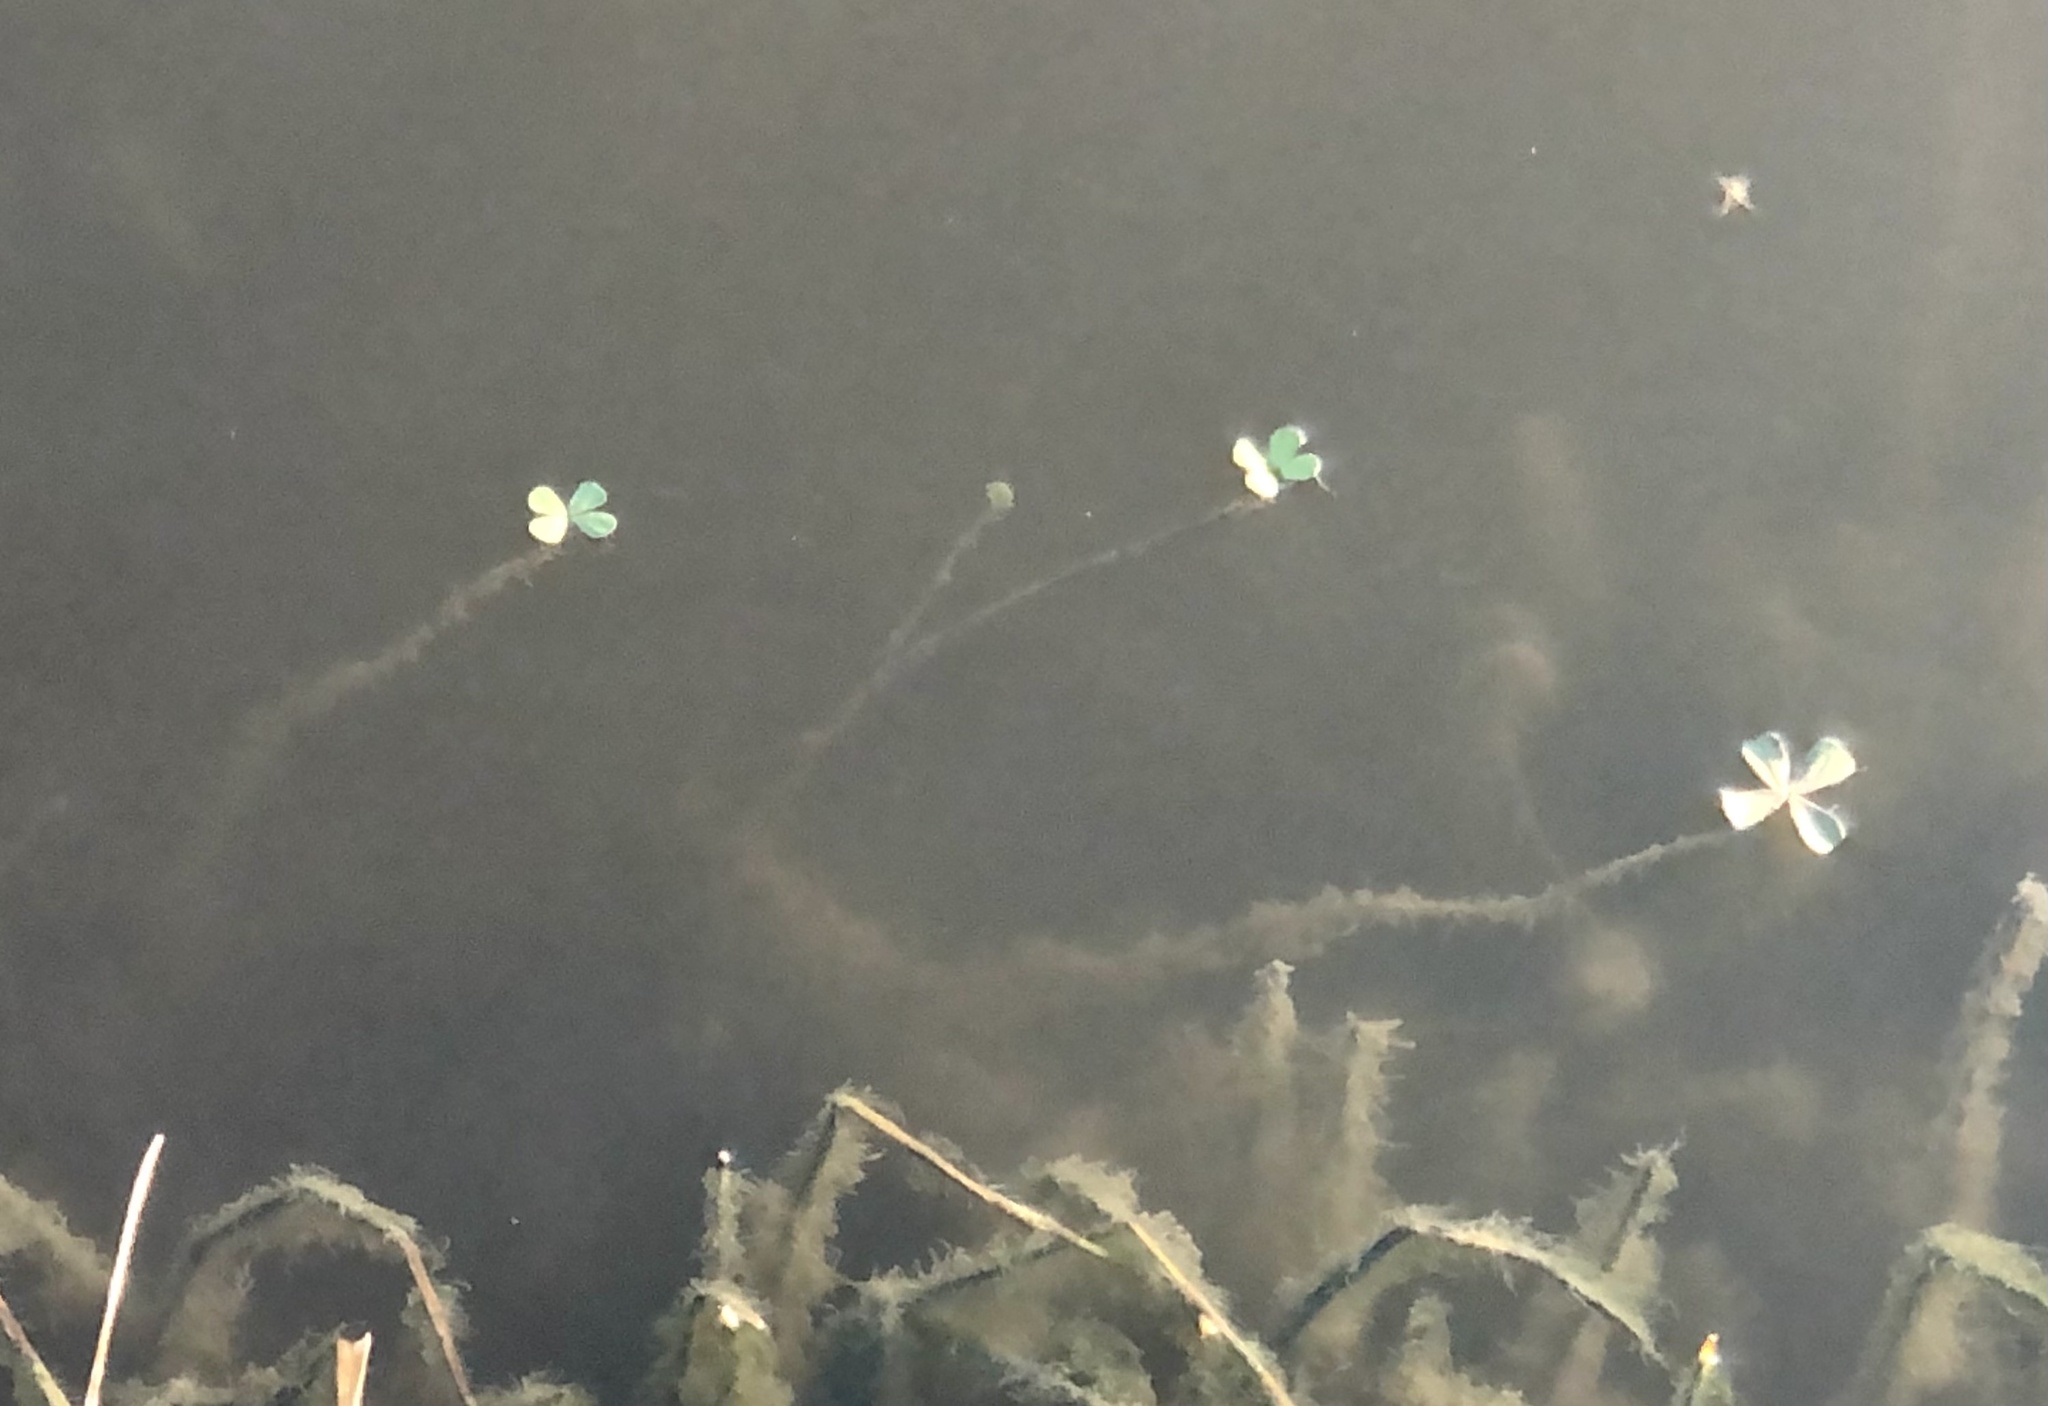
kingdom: Plantae
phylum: Tracheophyta
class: Polypodiopsida
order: Salviniales
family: Marsileaceae
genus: Marsilea
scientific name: Marsilea vestita
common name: Hooked-pepperwort
